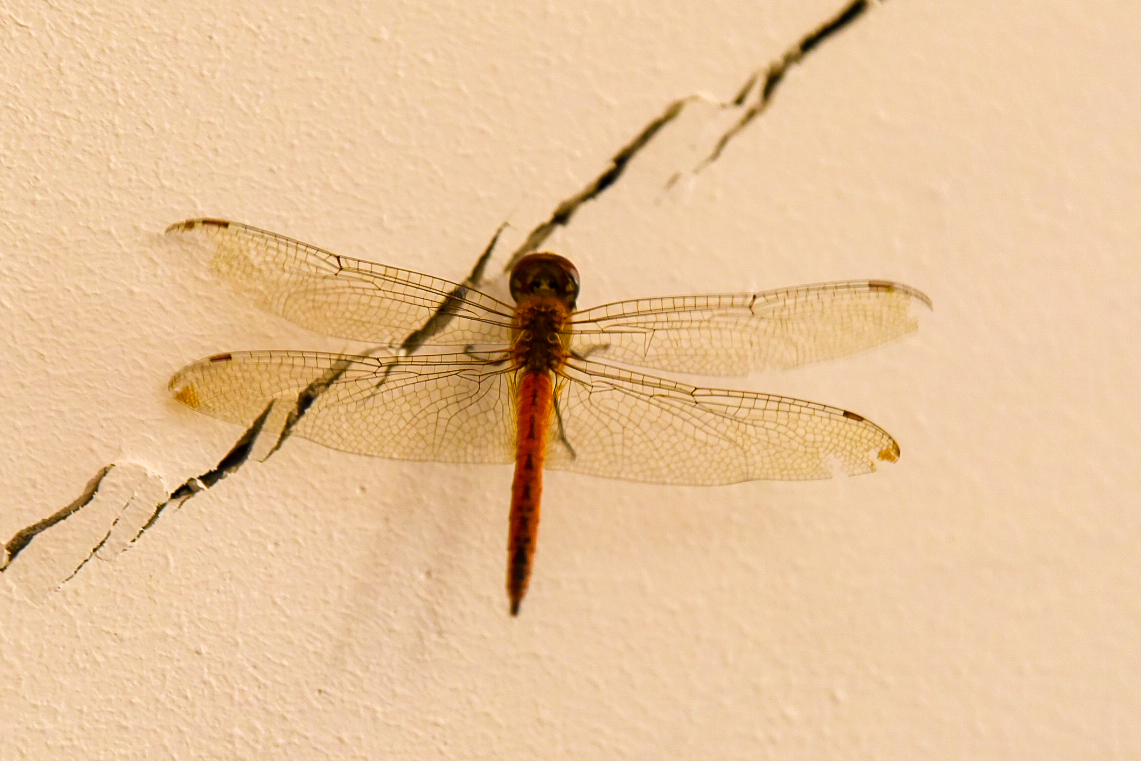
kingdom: Animalia
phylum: Arthropoda
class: Insecta
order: Odonata
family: Libellulidae
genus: Pantala
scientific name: Pantala flavescens
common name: Wandering glider
